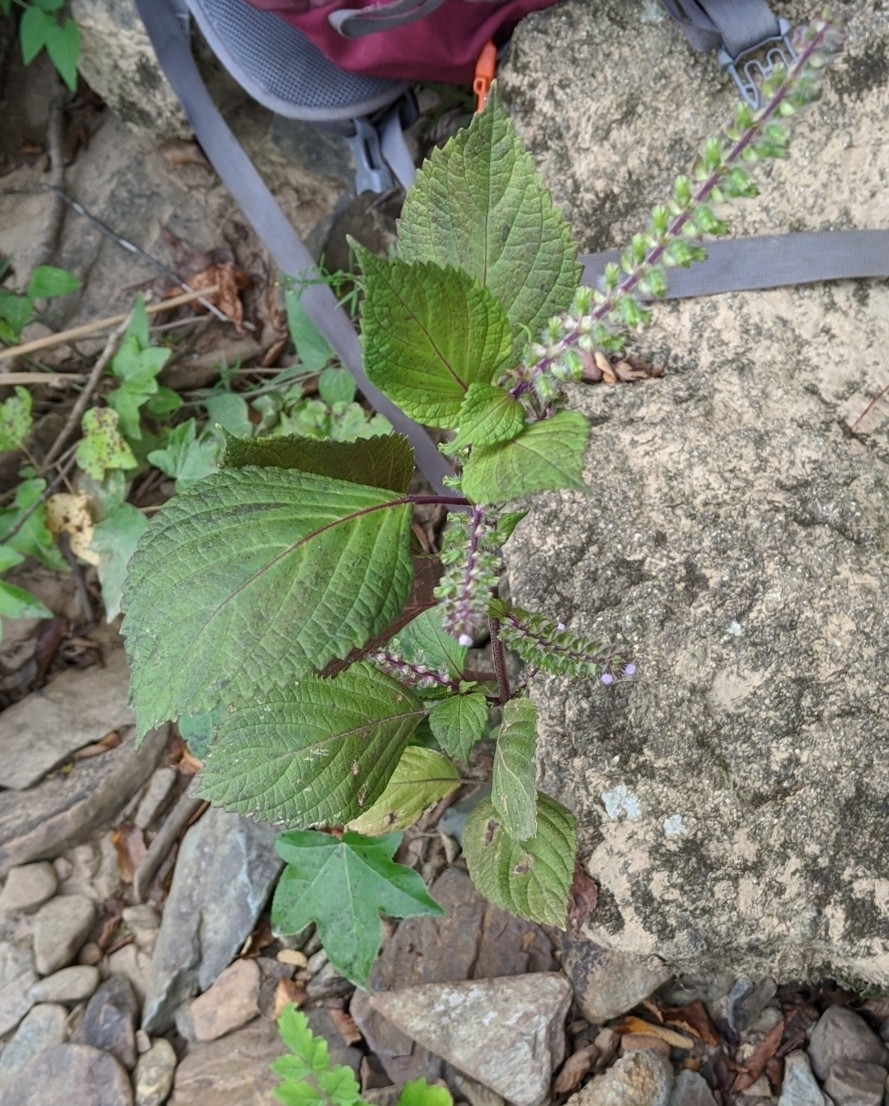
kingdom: Plantae
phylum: Tracheophyta
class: Magnoliopsida
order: Lamiales
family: Lamiaceae
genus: Perilla
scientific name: Perilla frutescens
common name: Perilla
